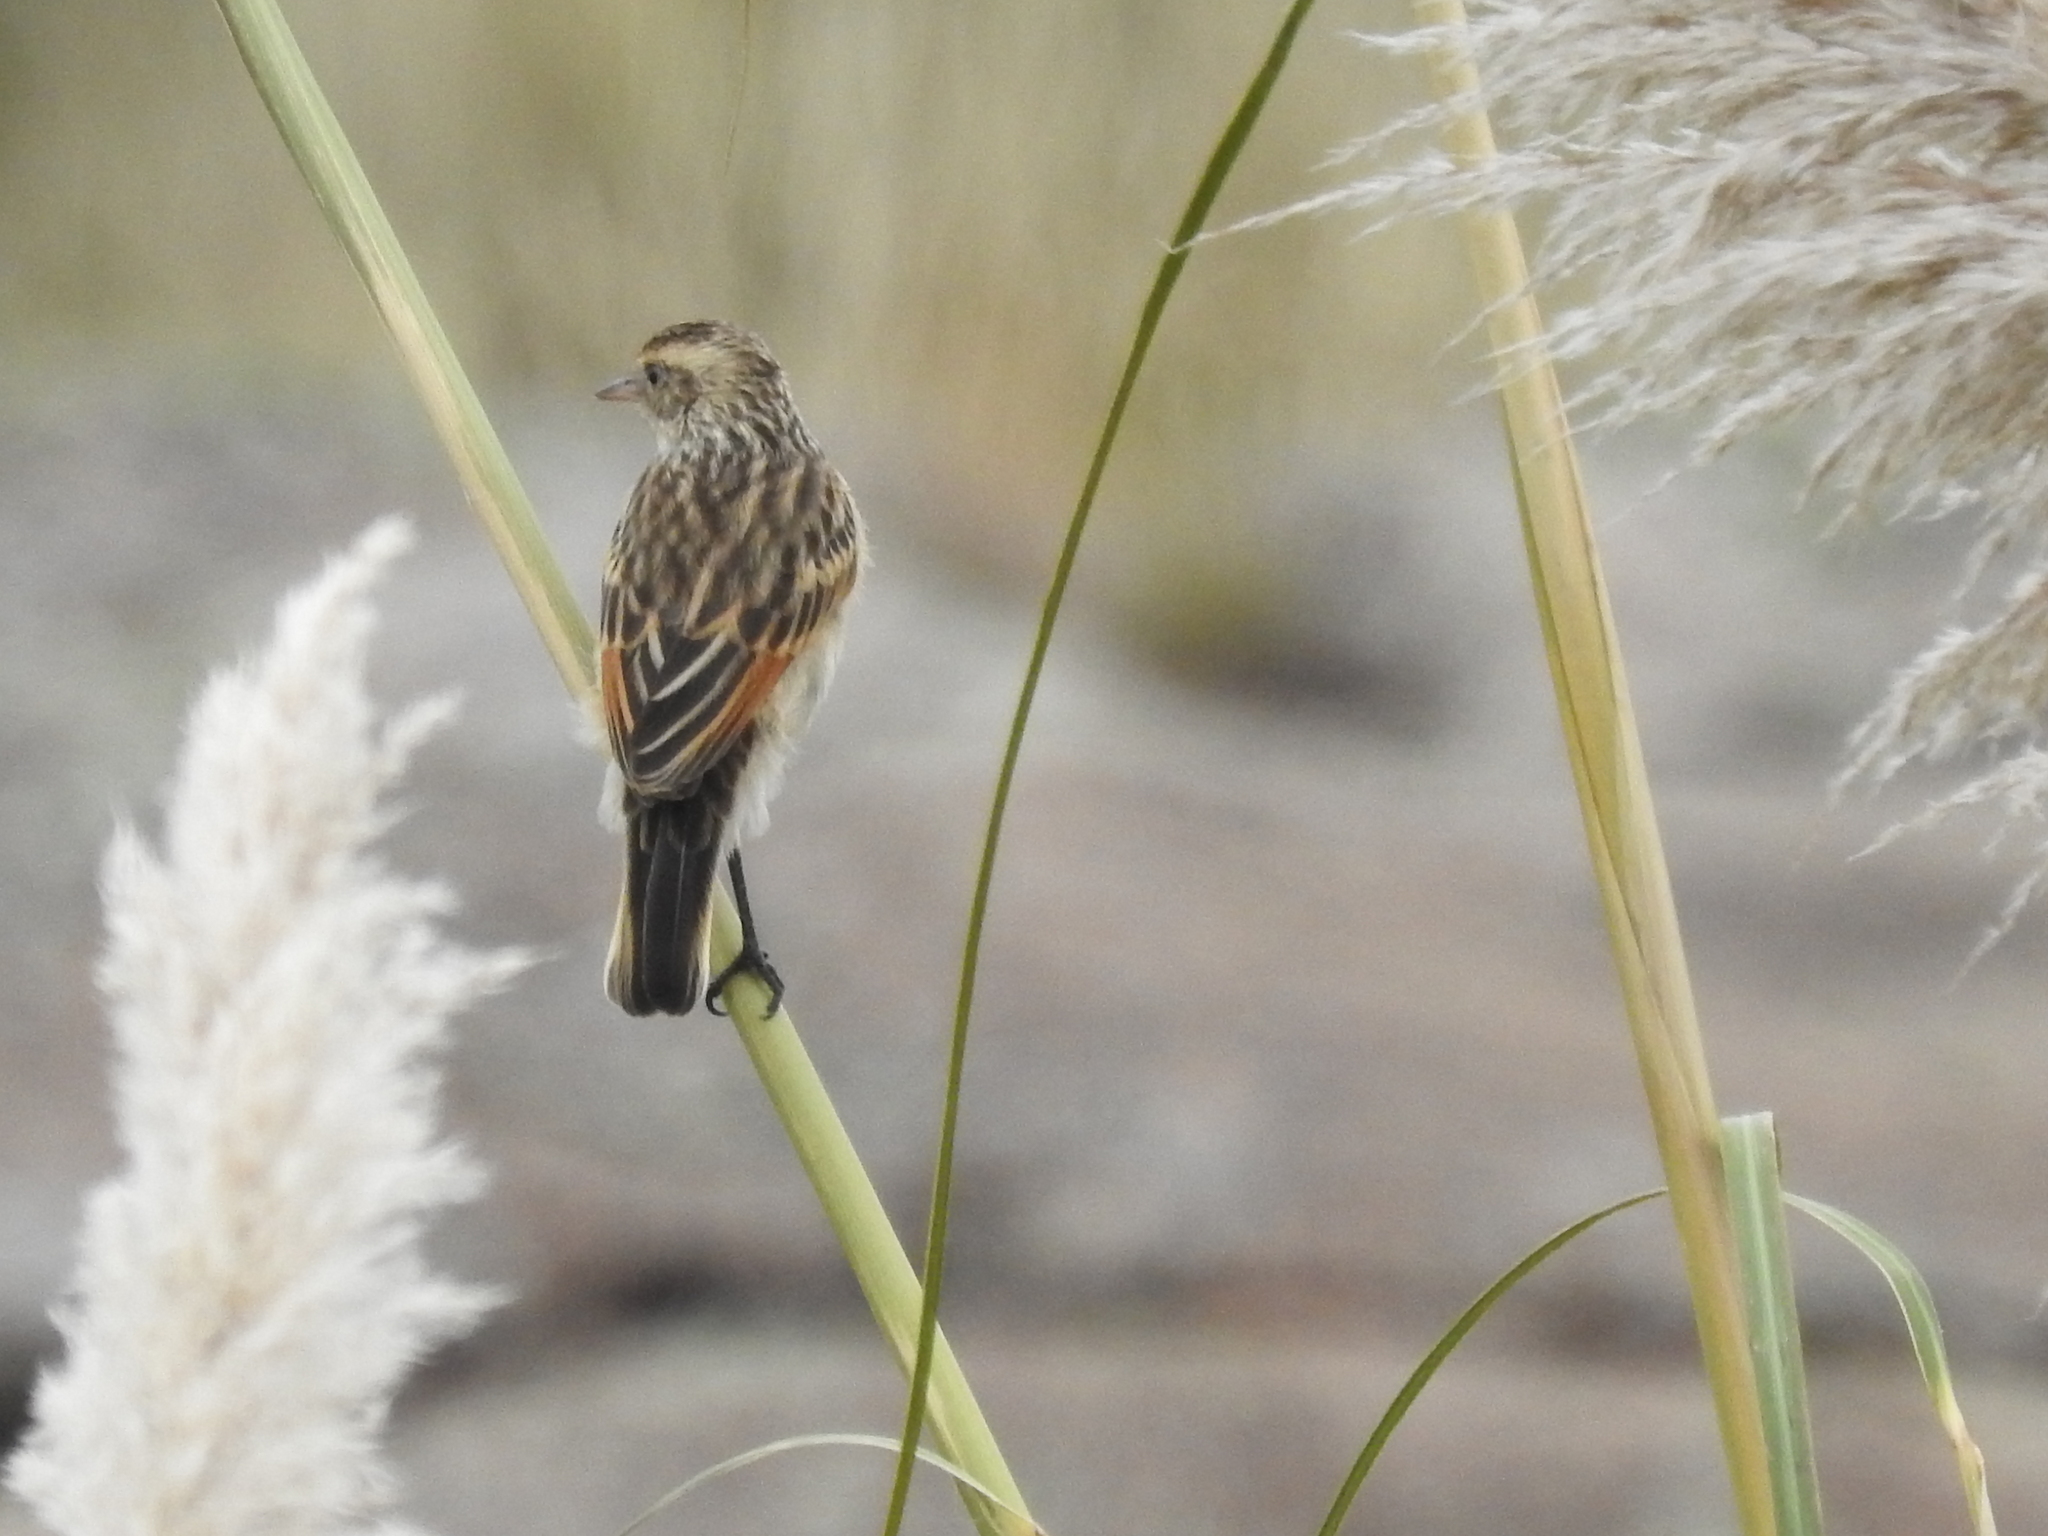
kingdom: Animalia
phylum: Chordata
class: Aves
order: Passeriformes
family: Tyrannidae
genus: Hymenops
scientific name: Hymenops perspicillatus
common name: Spectacled tyrant
